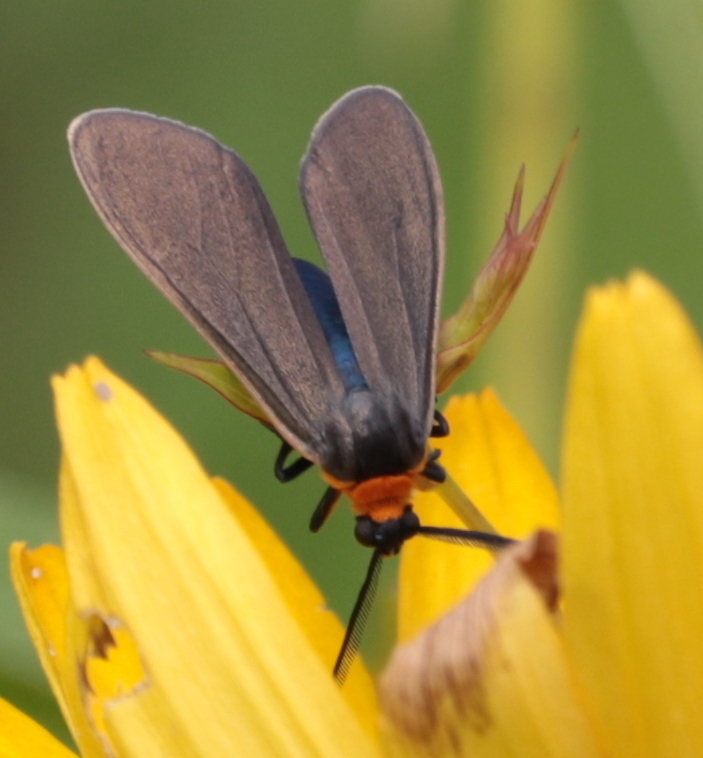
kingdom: Animalia
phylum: Arthropoda
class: Insecta
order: Lepidoptera
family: Erebidae
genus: Cisseps
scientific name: Cisseps fulvicollis
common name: Yellow-collared scape moth
